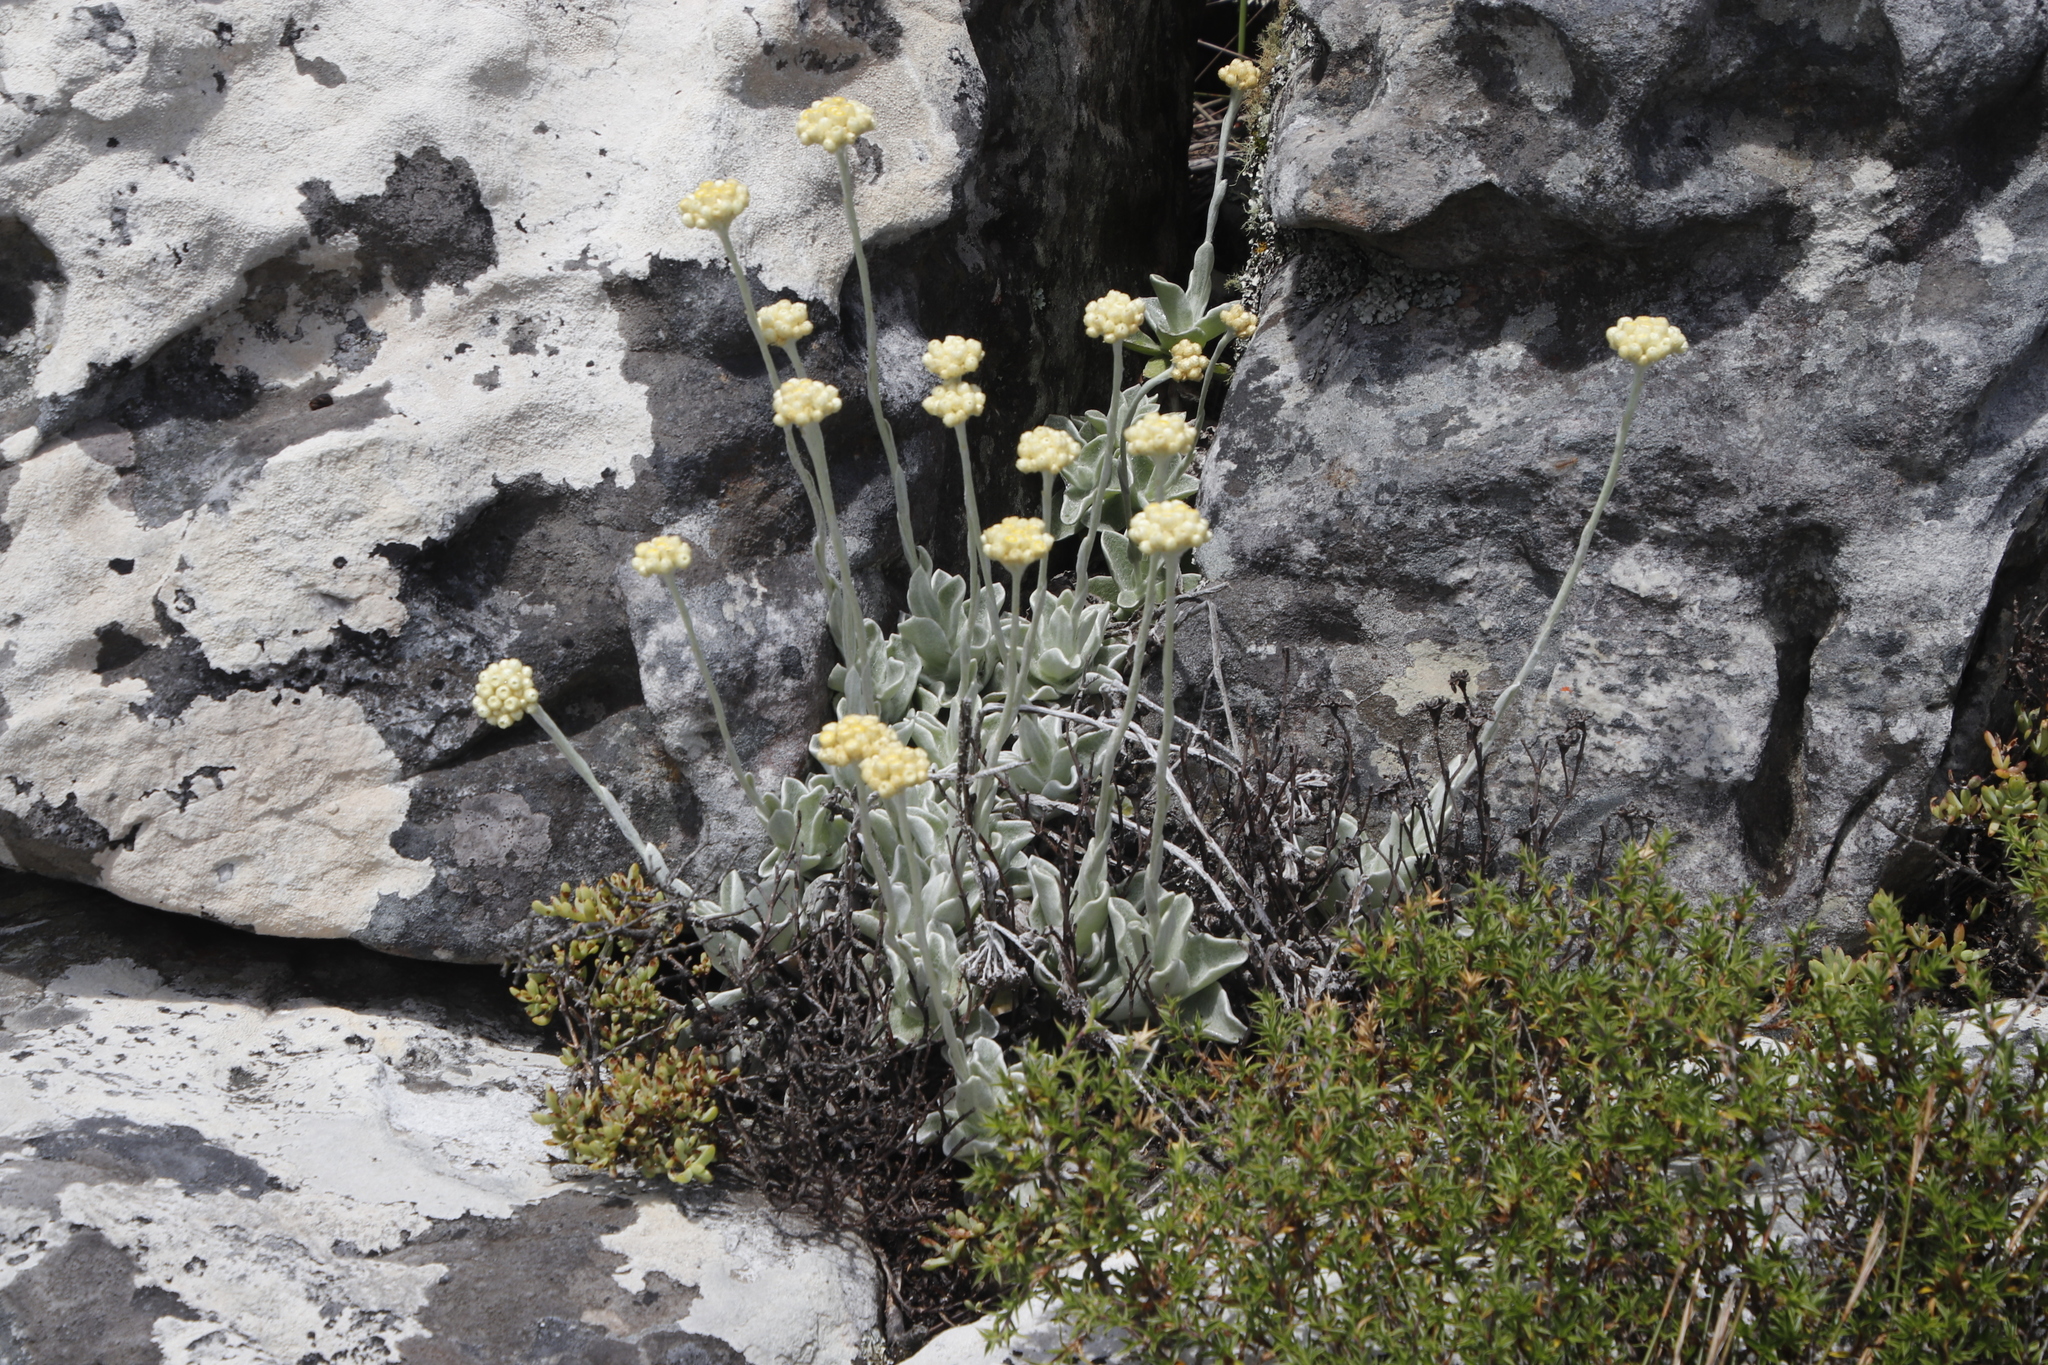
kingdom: Plantae
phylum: Tracheophyta
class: Magnoliopsida
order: Asterales
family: Asteraceae
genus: Helichrysum
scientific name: Helichrysum grandiflorum
